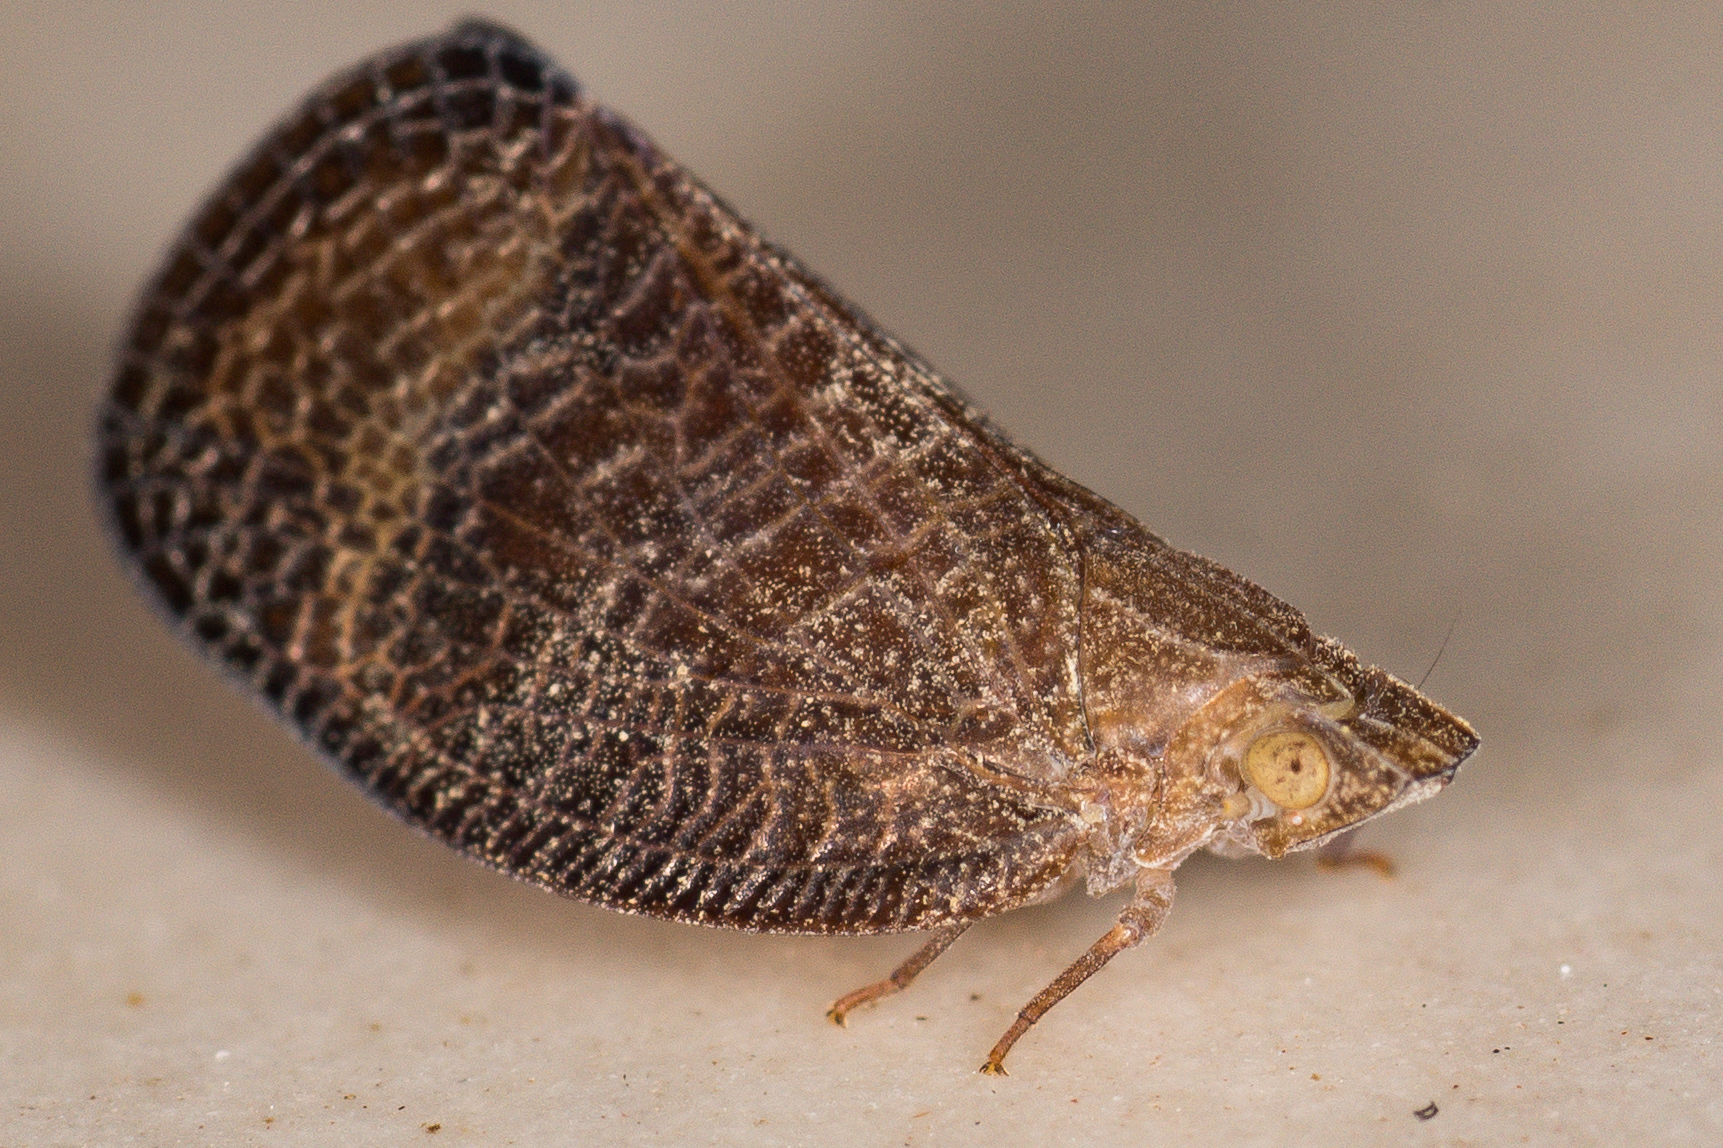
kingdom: Animalia
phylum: Arthropoda
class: Insecta
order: Hemiptera
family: Ricaniidae
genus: Ricamela
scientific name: Ricamela
